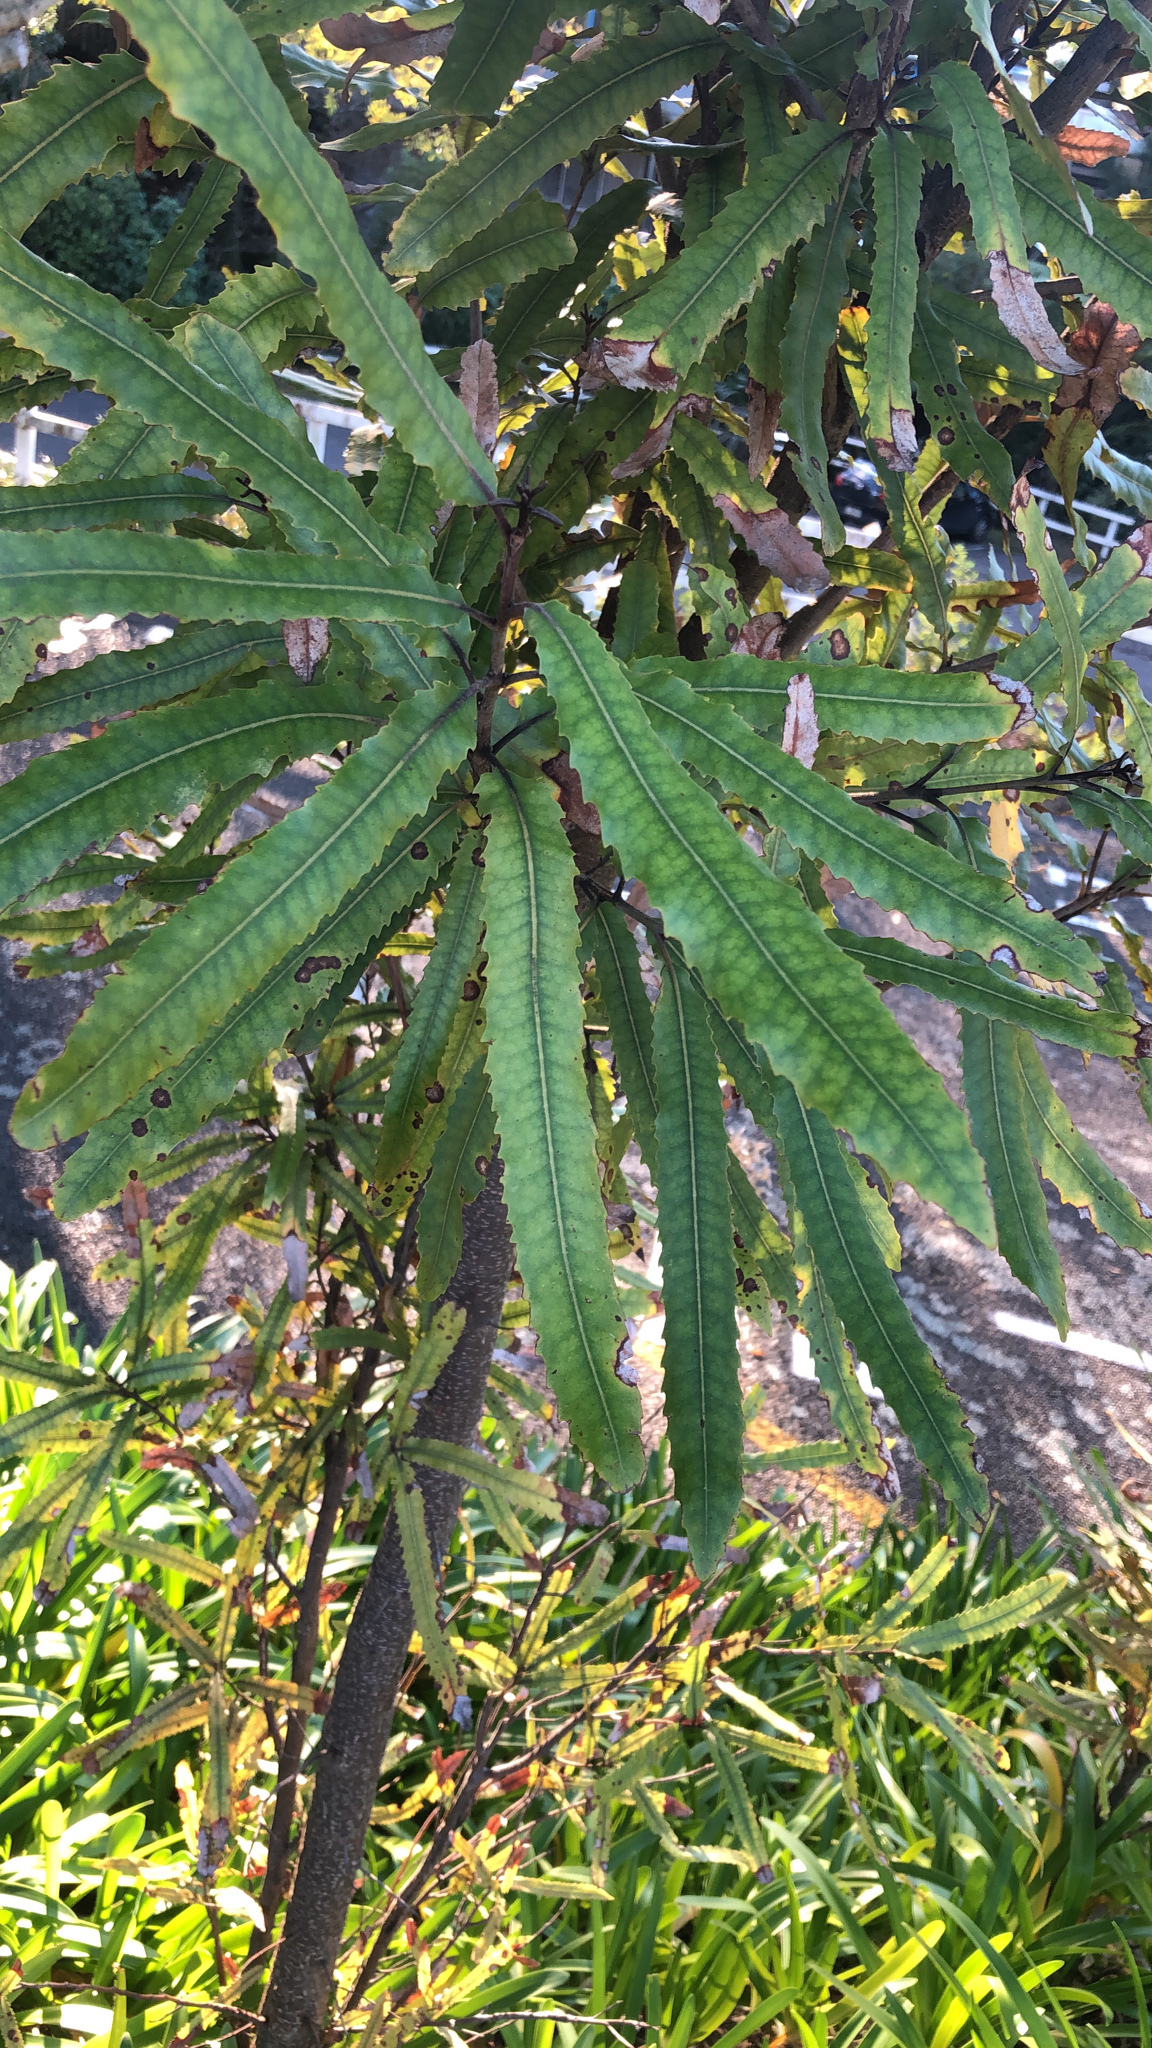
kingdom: Plantae
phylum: Tracheophyta
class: Magnoliopsida
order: Proteales
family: Proteaceae
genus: Knightia
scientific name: Knightia excelsa
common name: New zealand-honeysuckle
